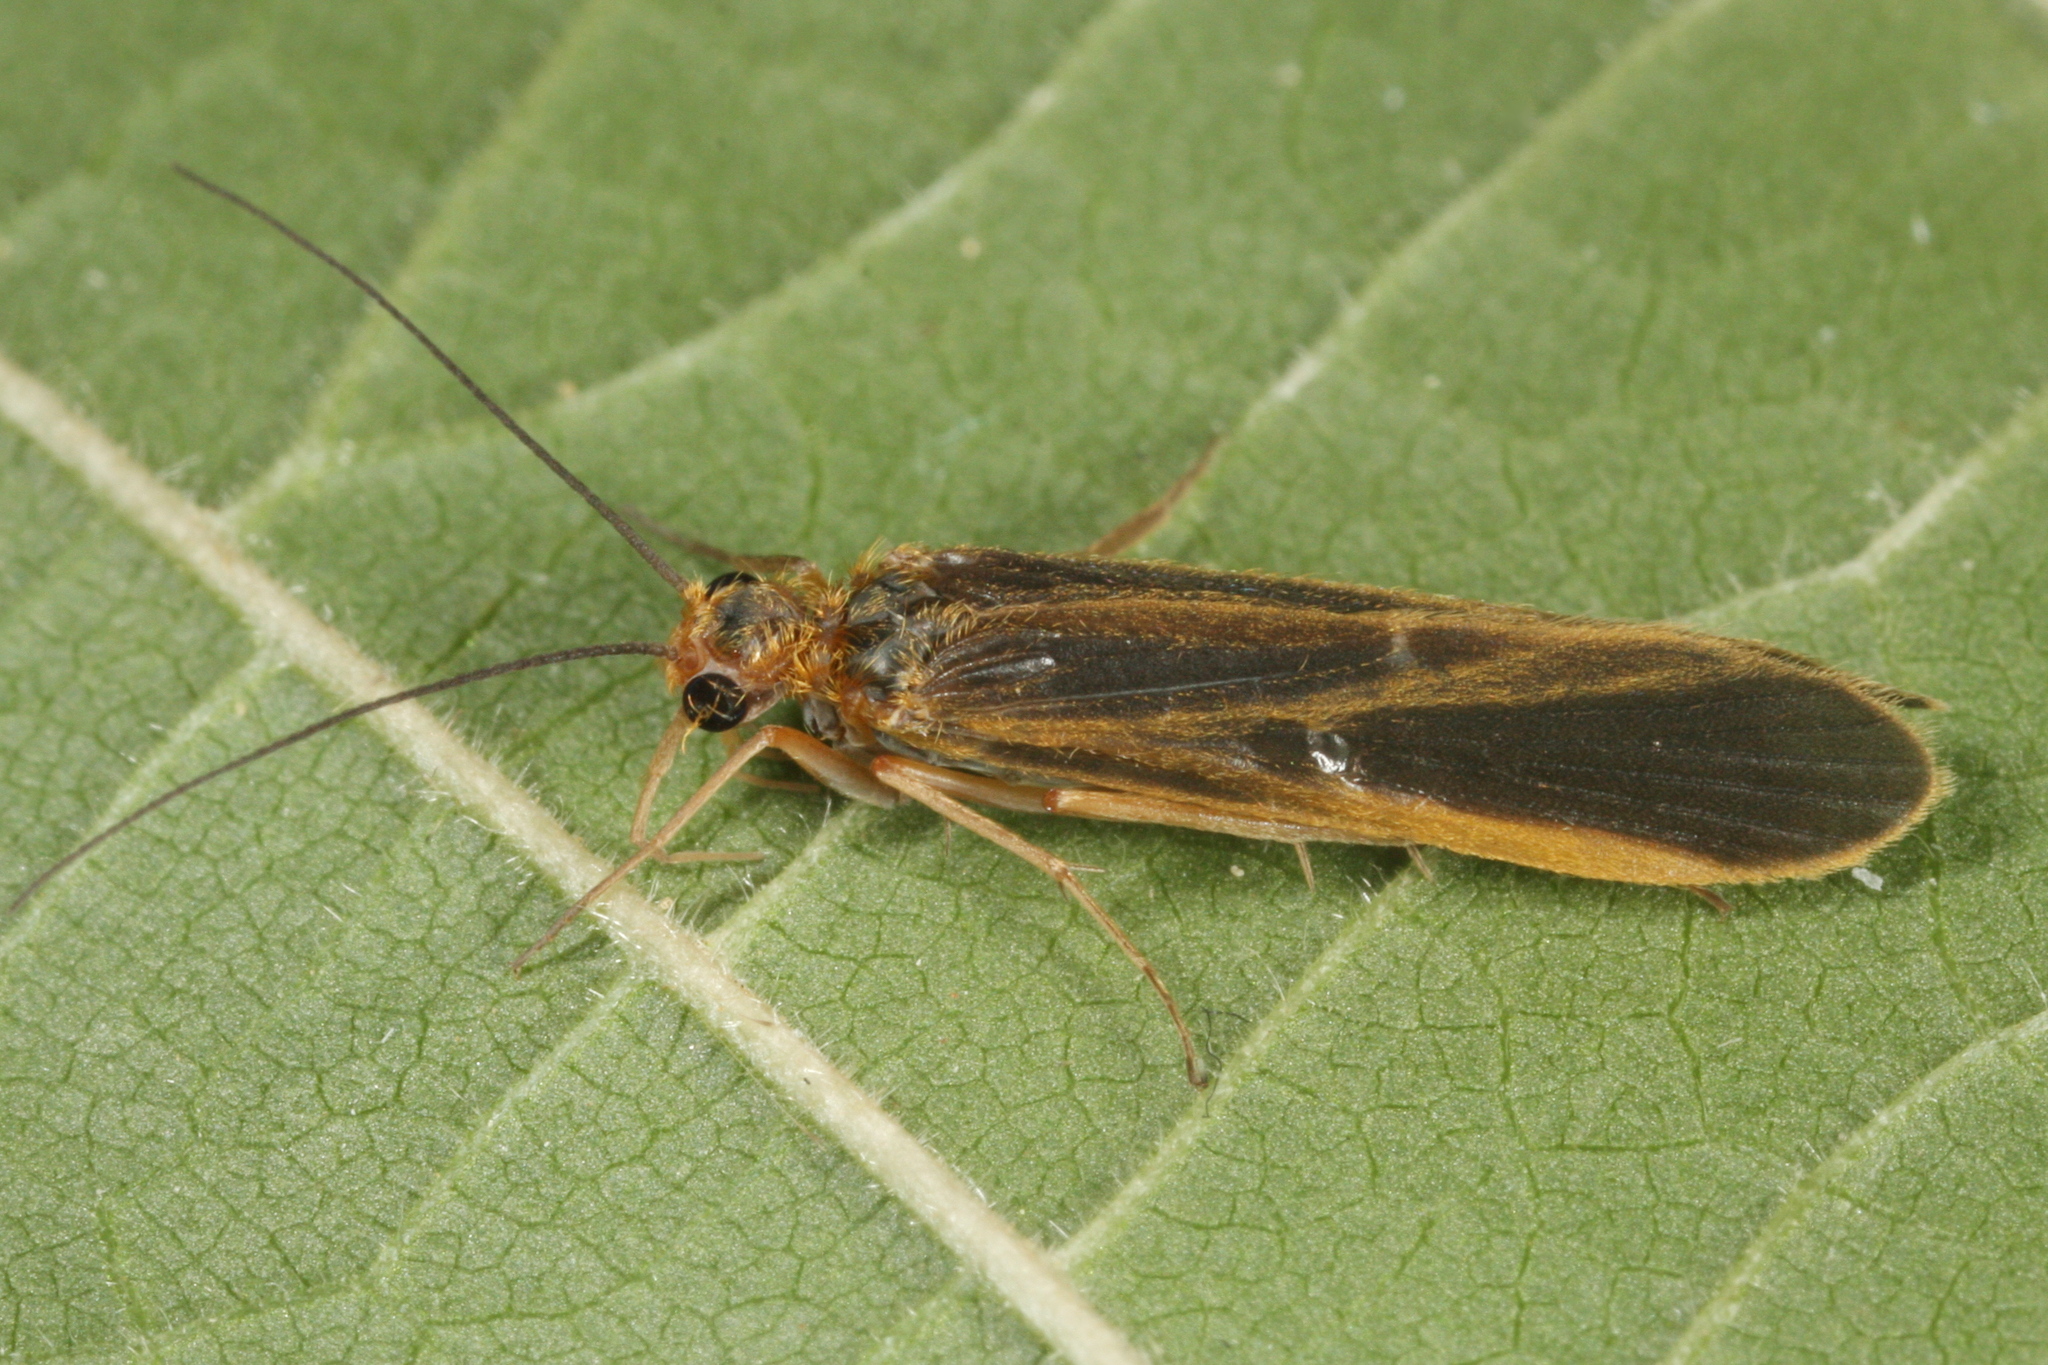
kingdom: Animalia
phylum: Arthropoda
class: Insecta
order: Trichoptera
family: Philopotamidae
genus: Chimarra
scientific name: Chimarra marginata
